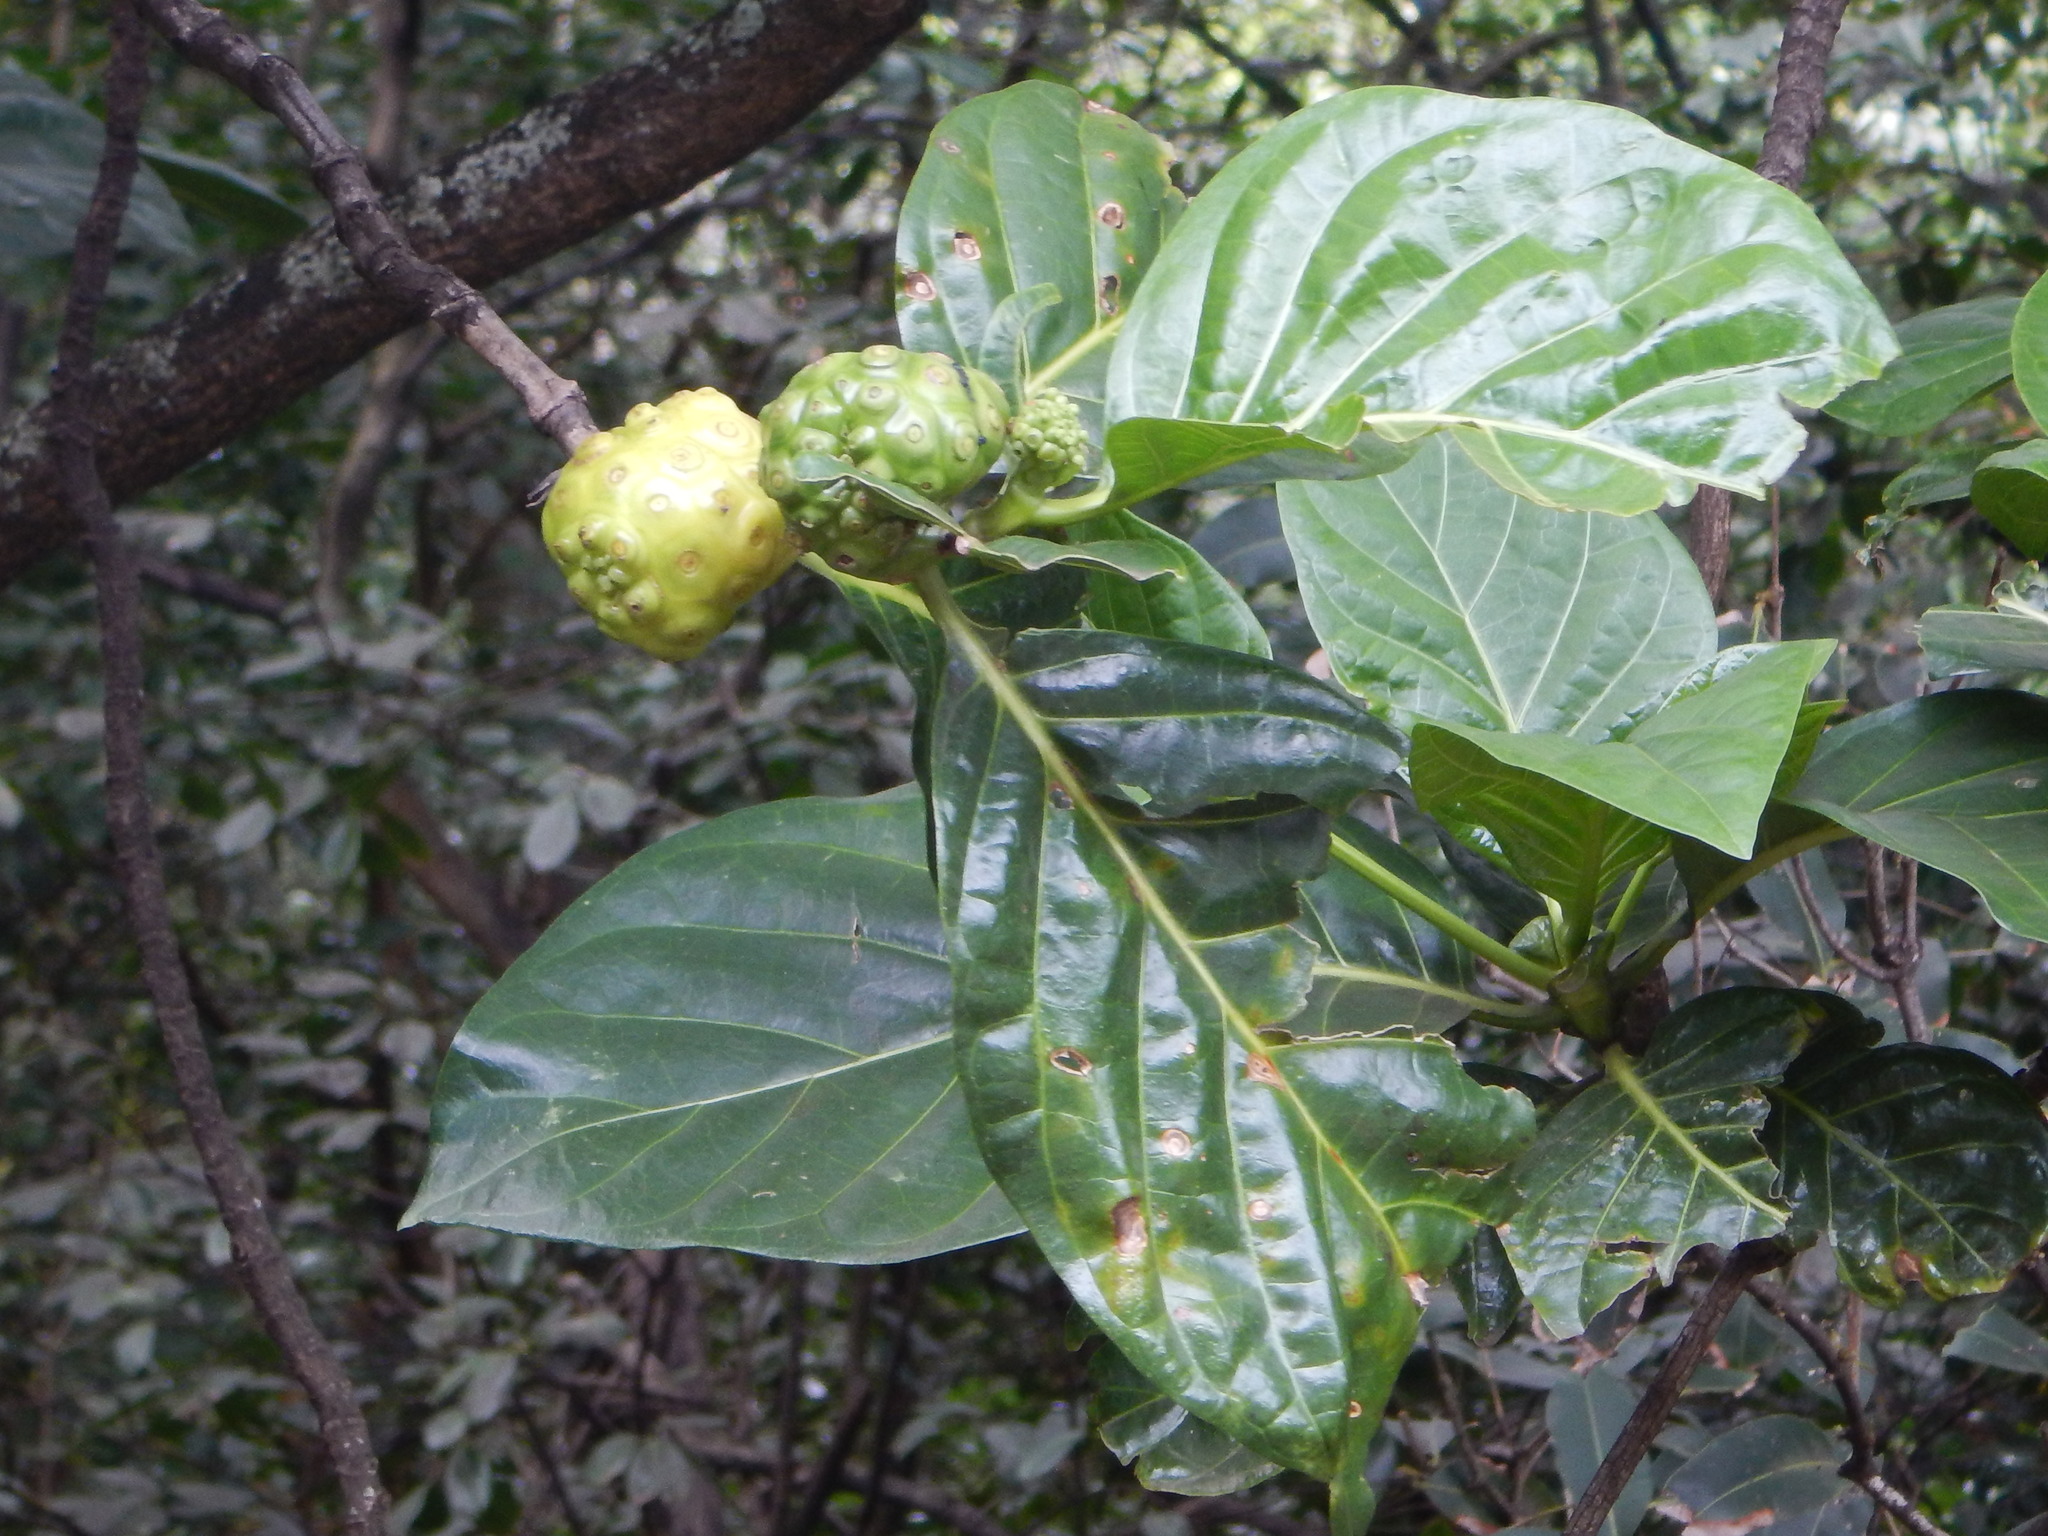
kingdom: Plantae
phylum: Tracheophyta
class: Magnoliopsida
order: Gentianales
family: Rubiaceae
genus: Morinda
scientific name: Morinda citrifolia
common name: Indian-mulberry
